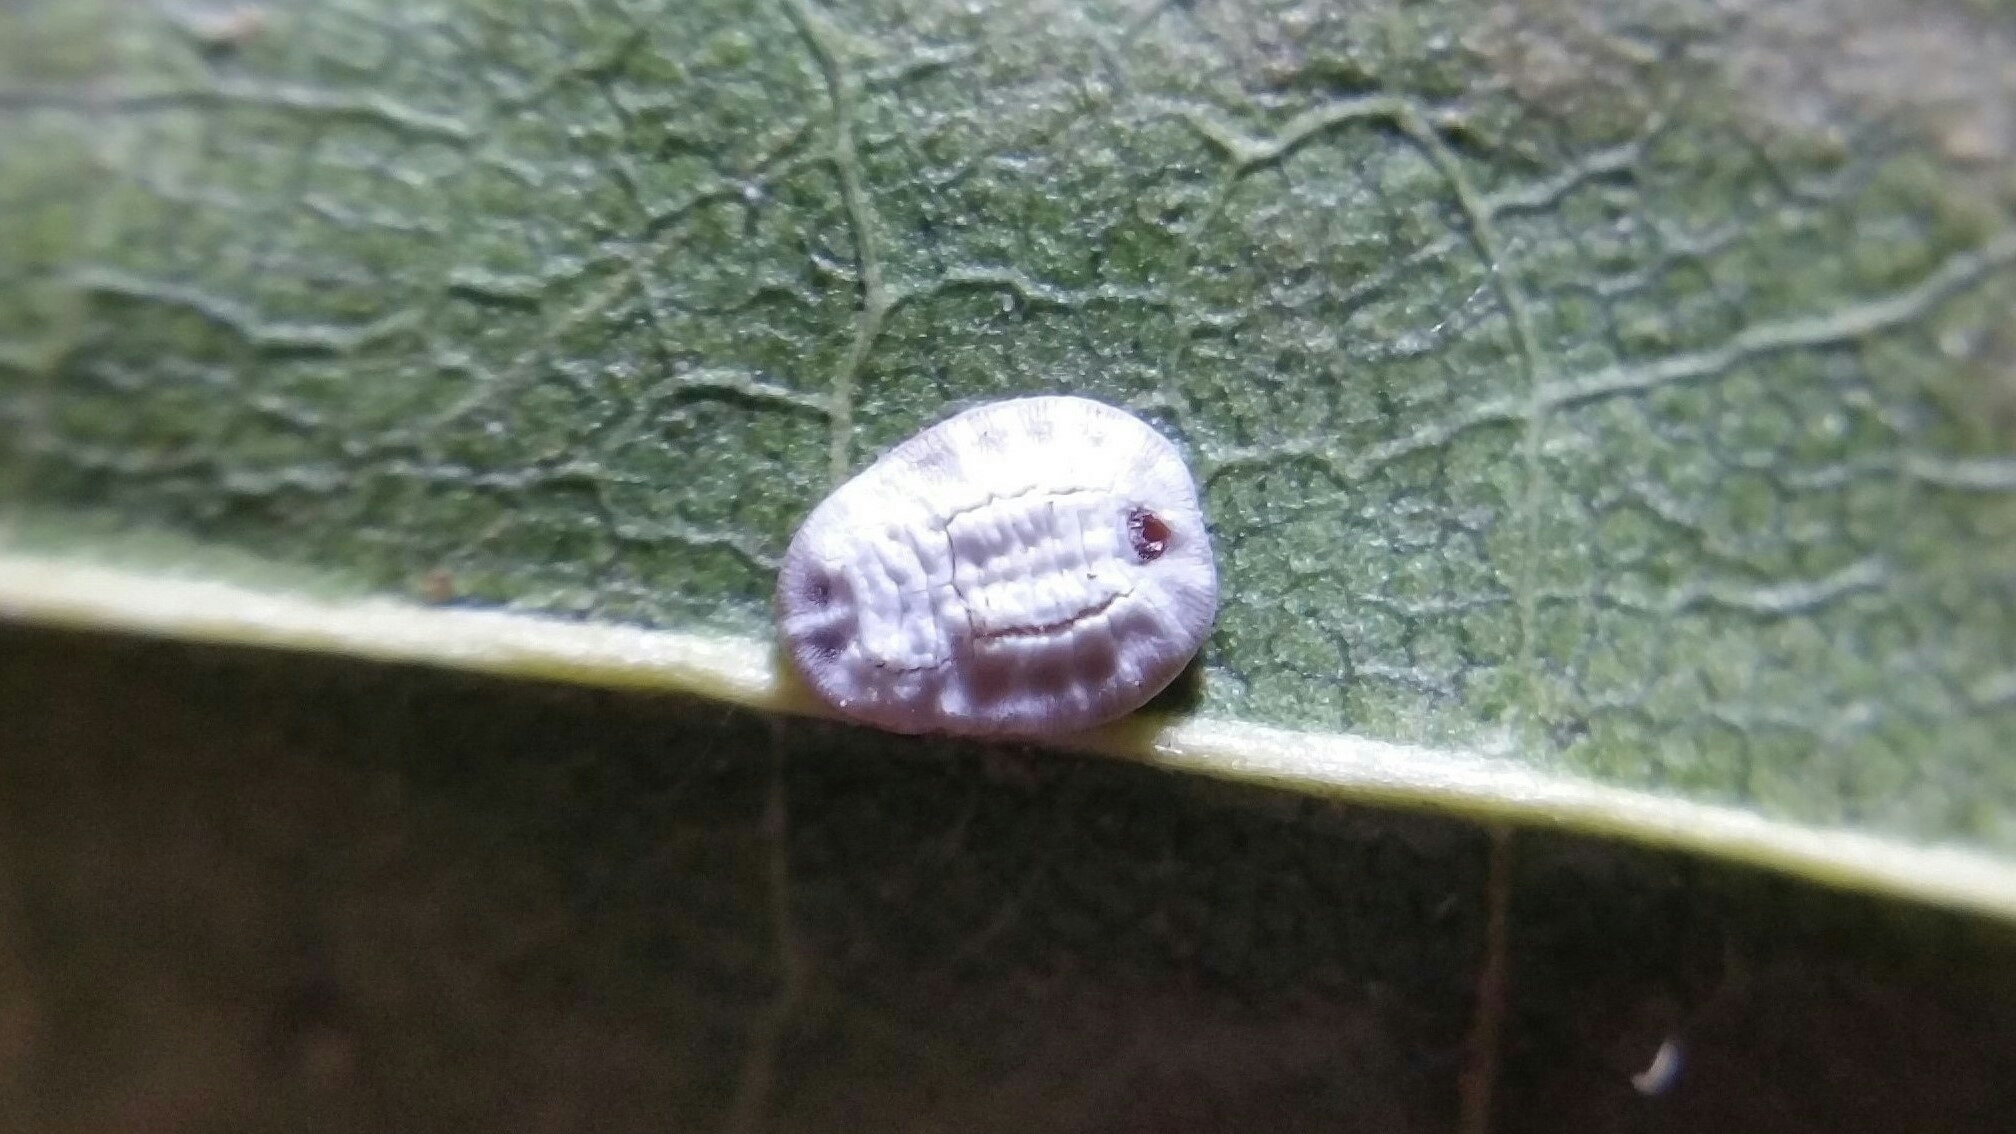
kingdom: Animalia
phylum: Arthropoda
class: Insecta
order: Hemiptera
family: Aleyrodidae
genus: Aleurochiton
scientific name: Aleurochiton aceris
